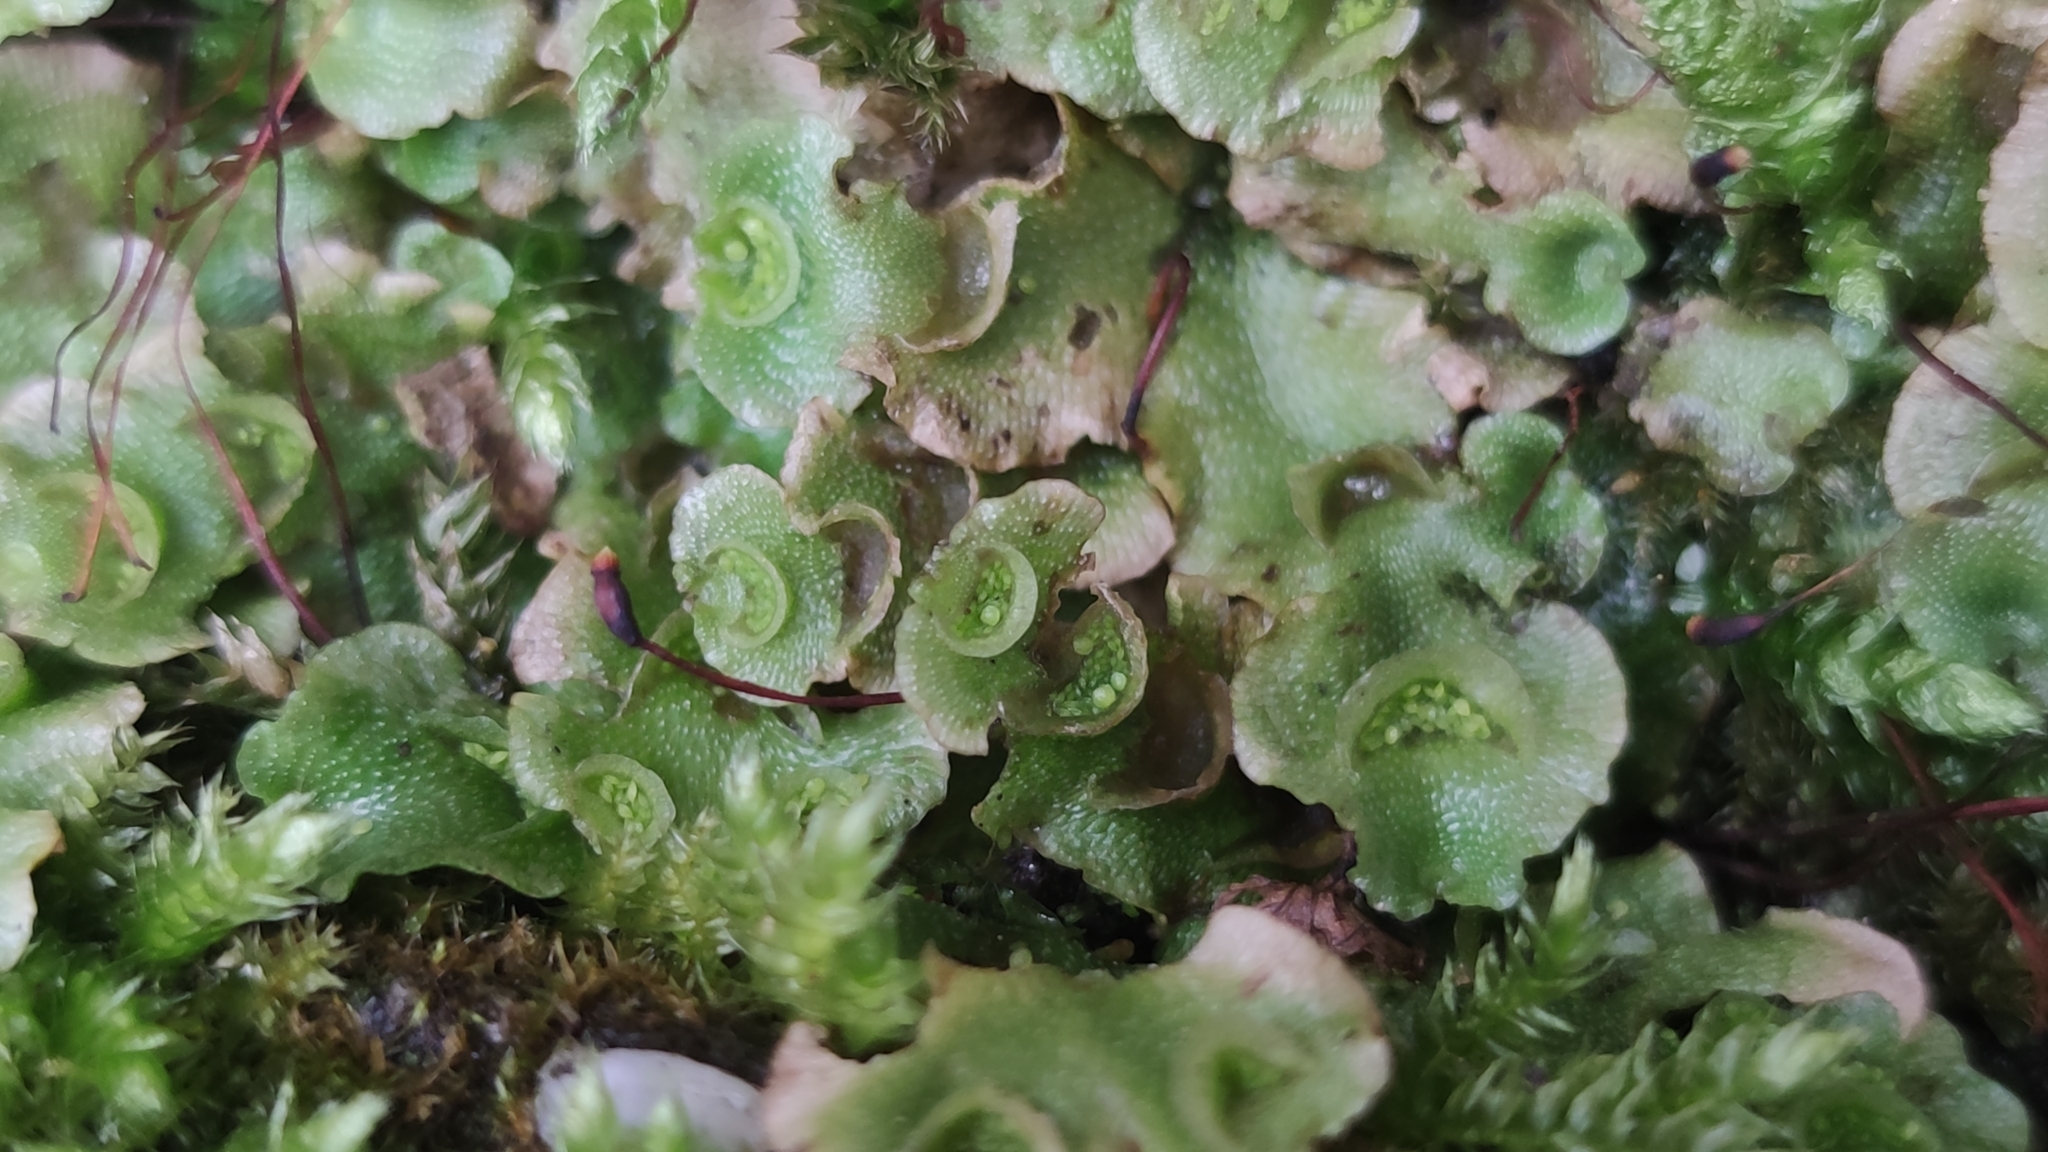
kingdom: Plantae
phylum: Marchantiophyta
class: Marchantiopsida
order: Lunulariales
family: Lunulariaceae
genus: Lunularia
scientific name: Lunularia cruciata
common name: Crescent-cup liverwort
